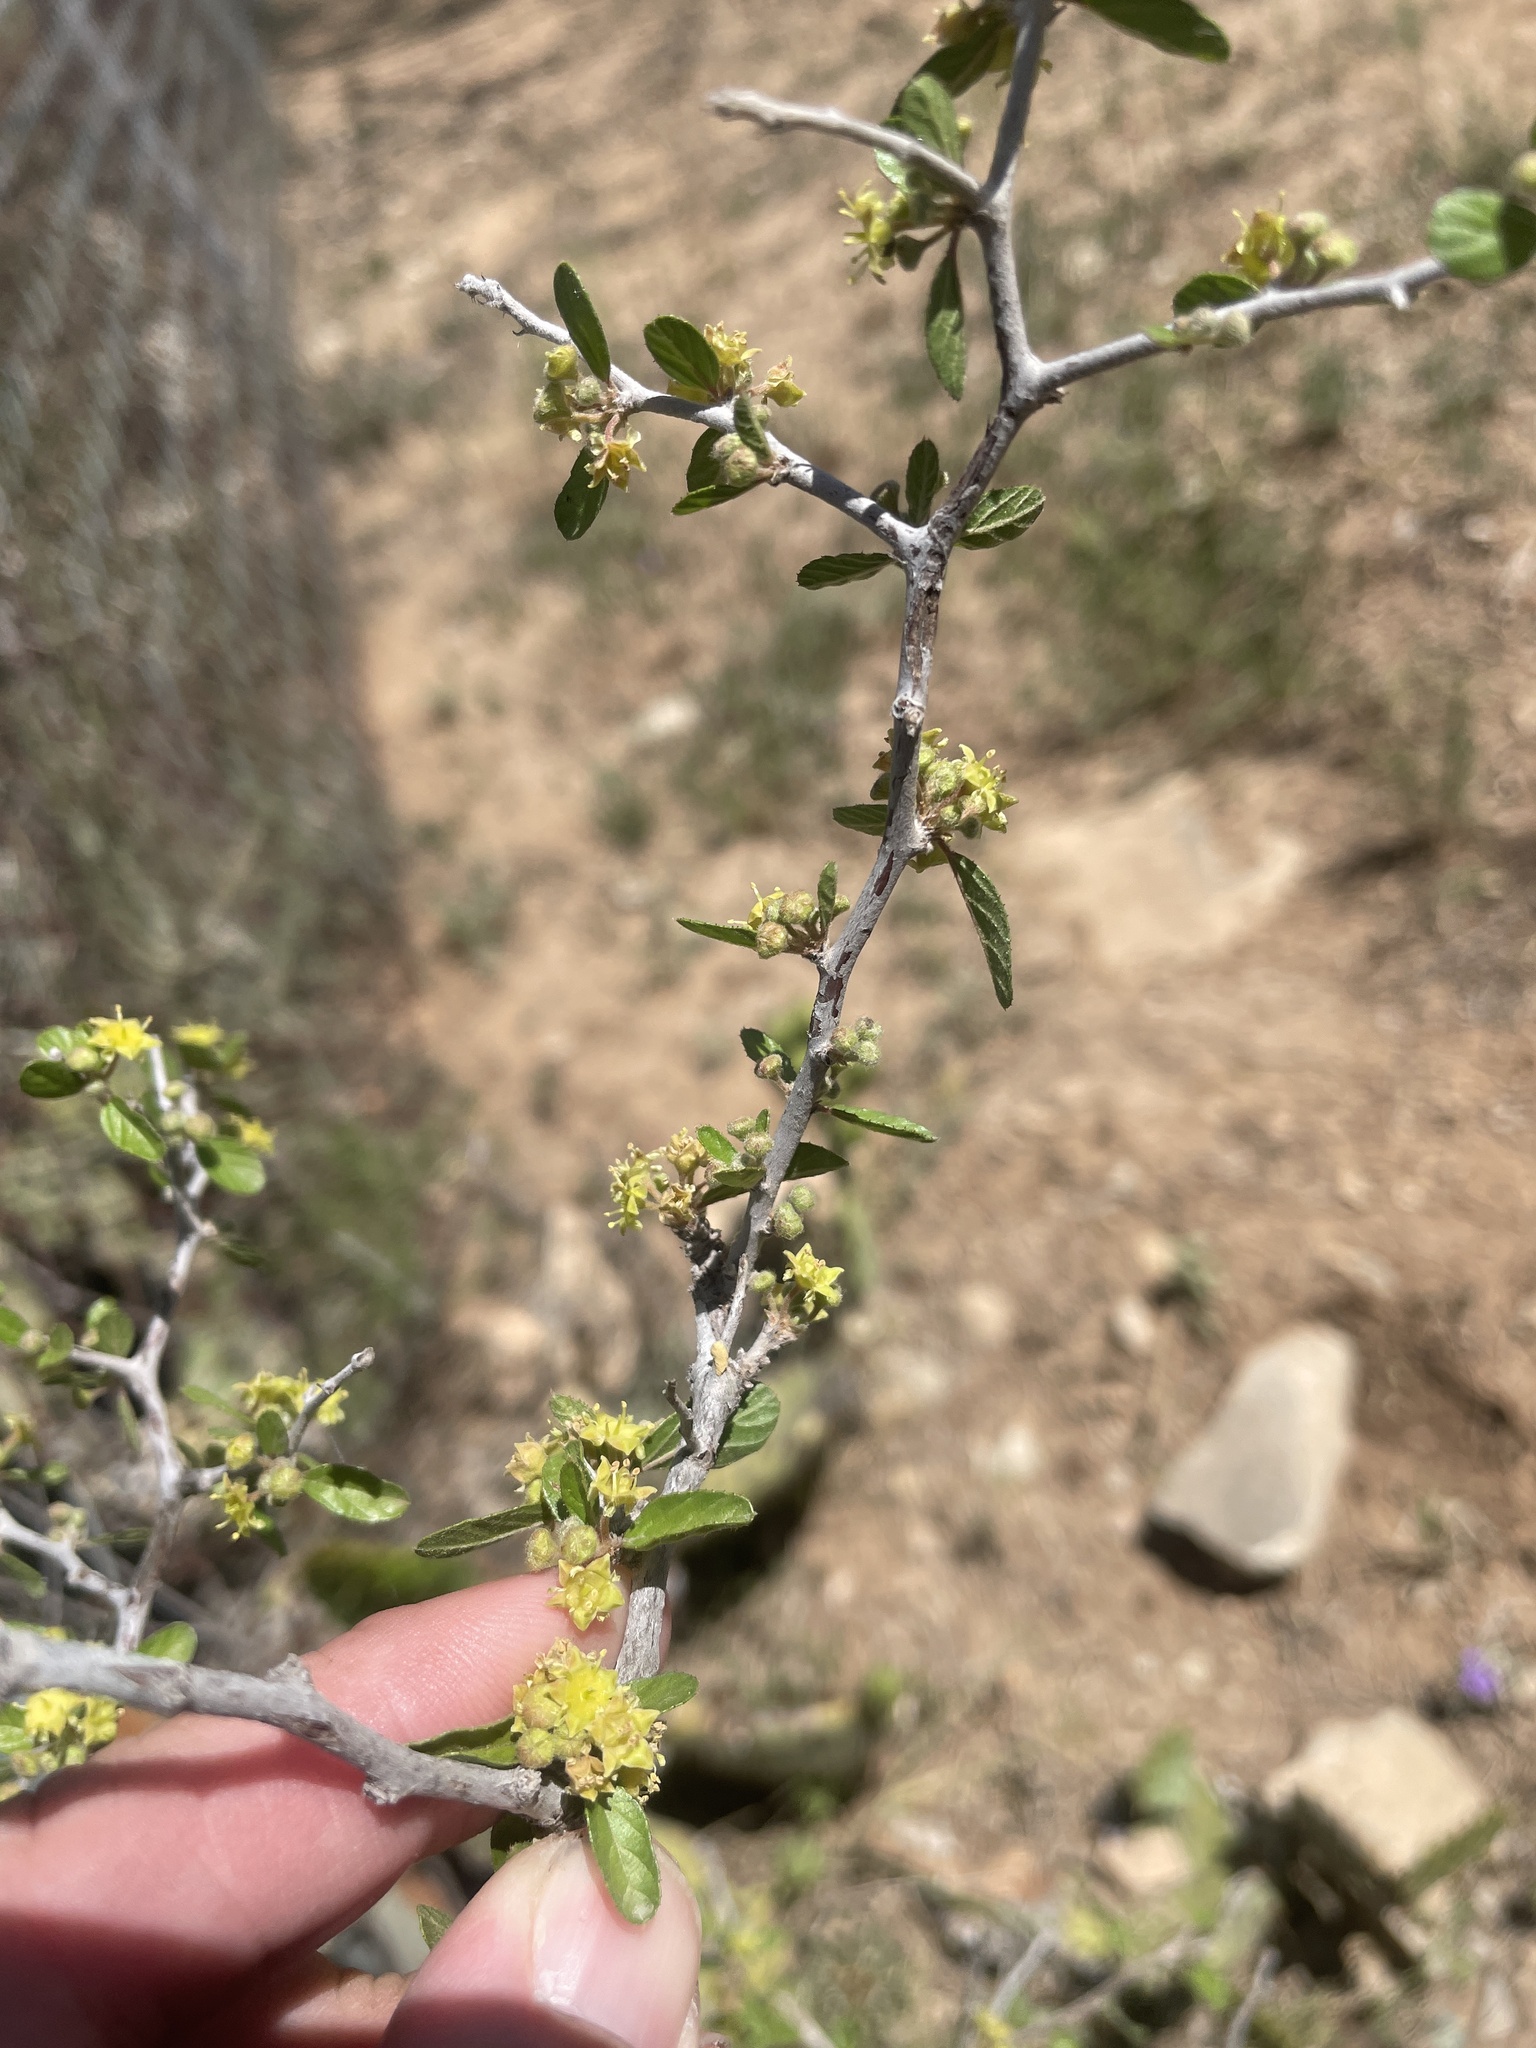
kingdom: Plantae
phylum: Tracheophyta
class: Magnoliopsida
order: Rosales
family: Rhamnaceae
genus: Sarcomphalus
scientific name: Sarcomphalus obtusifolius
